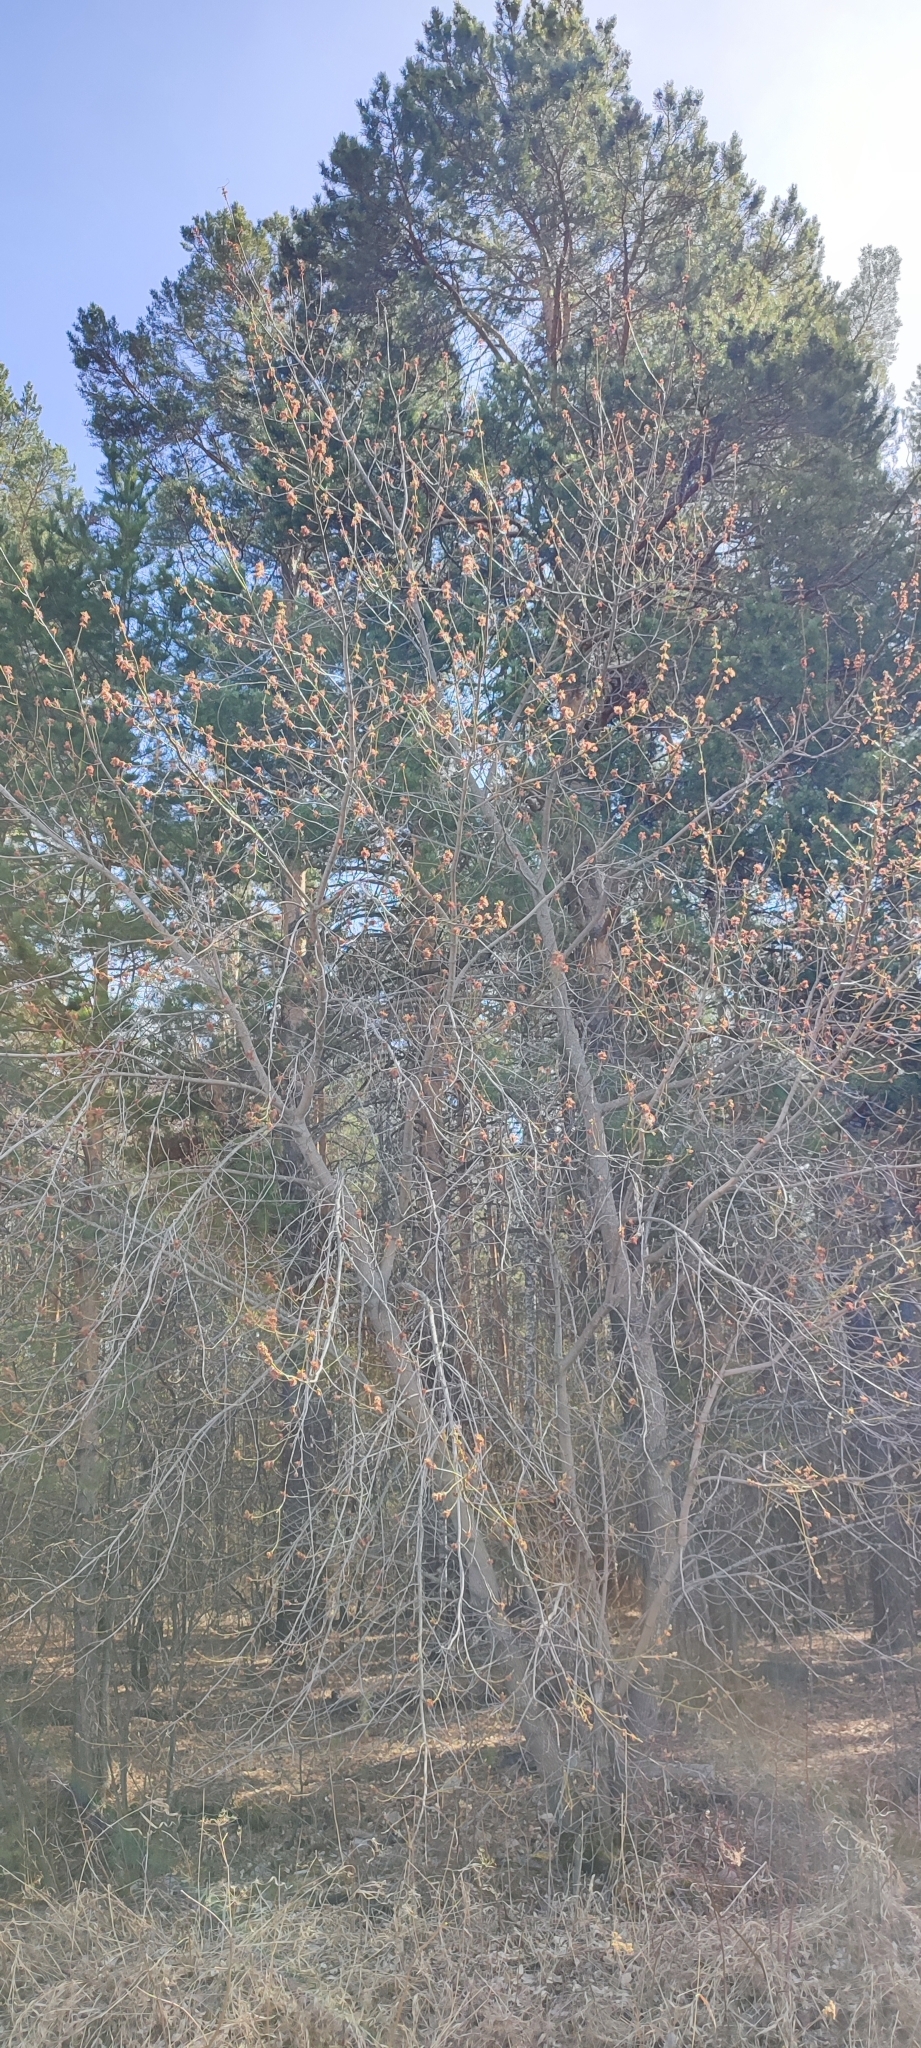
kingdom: Plantae
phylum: Tracheophyta
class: Magnoliopsida
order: Sapindales
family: Sapindaceae
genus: Acer
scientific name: Acer negundo
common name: Ashleaf maple
